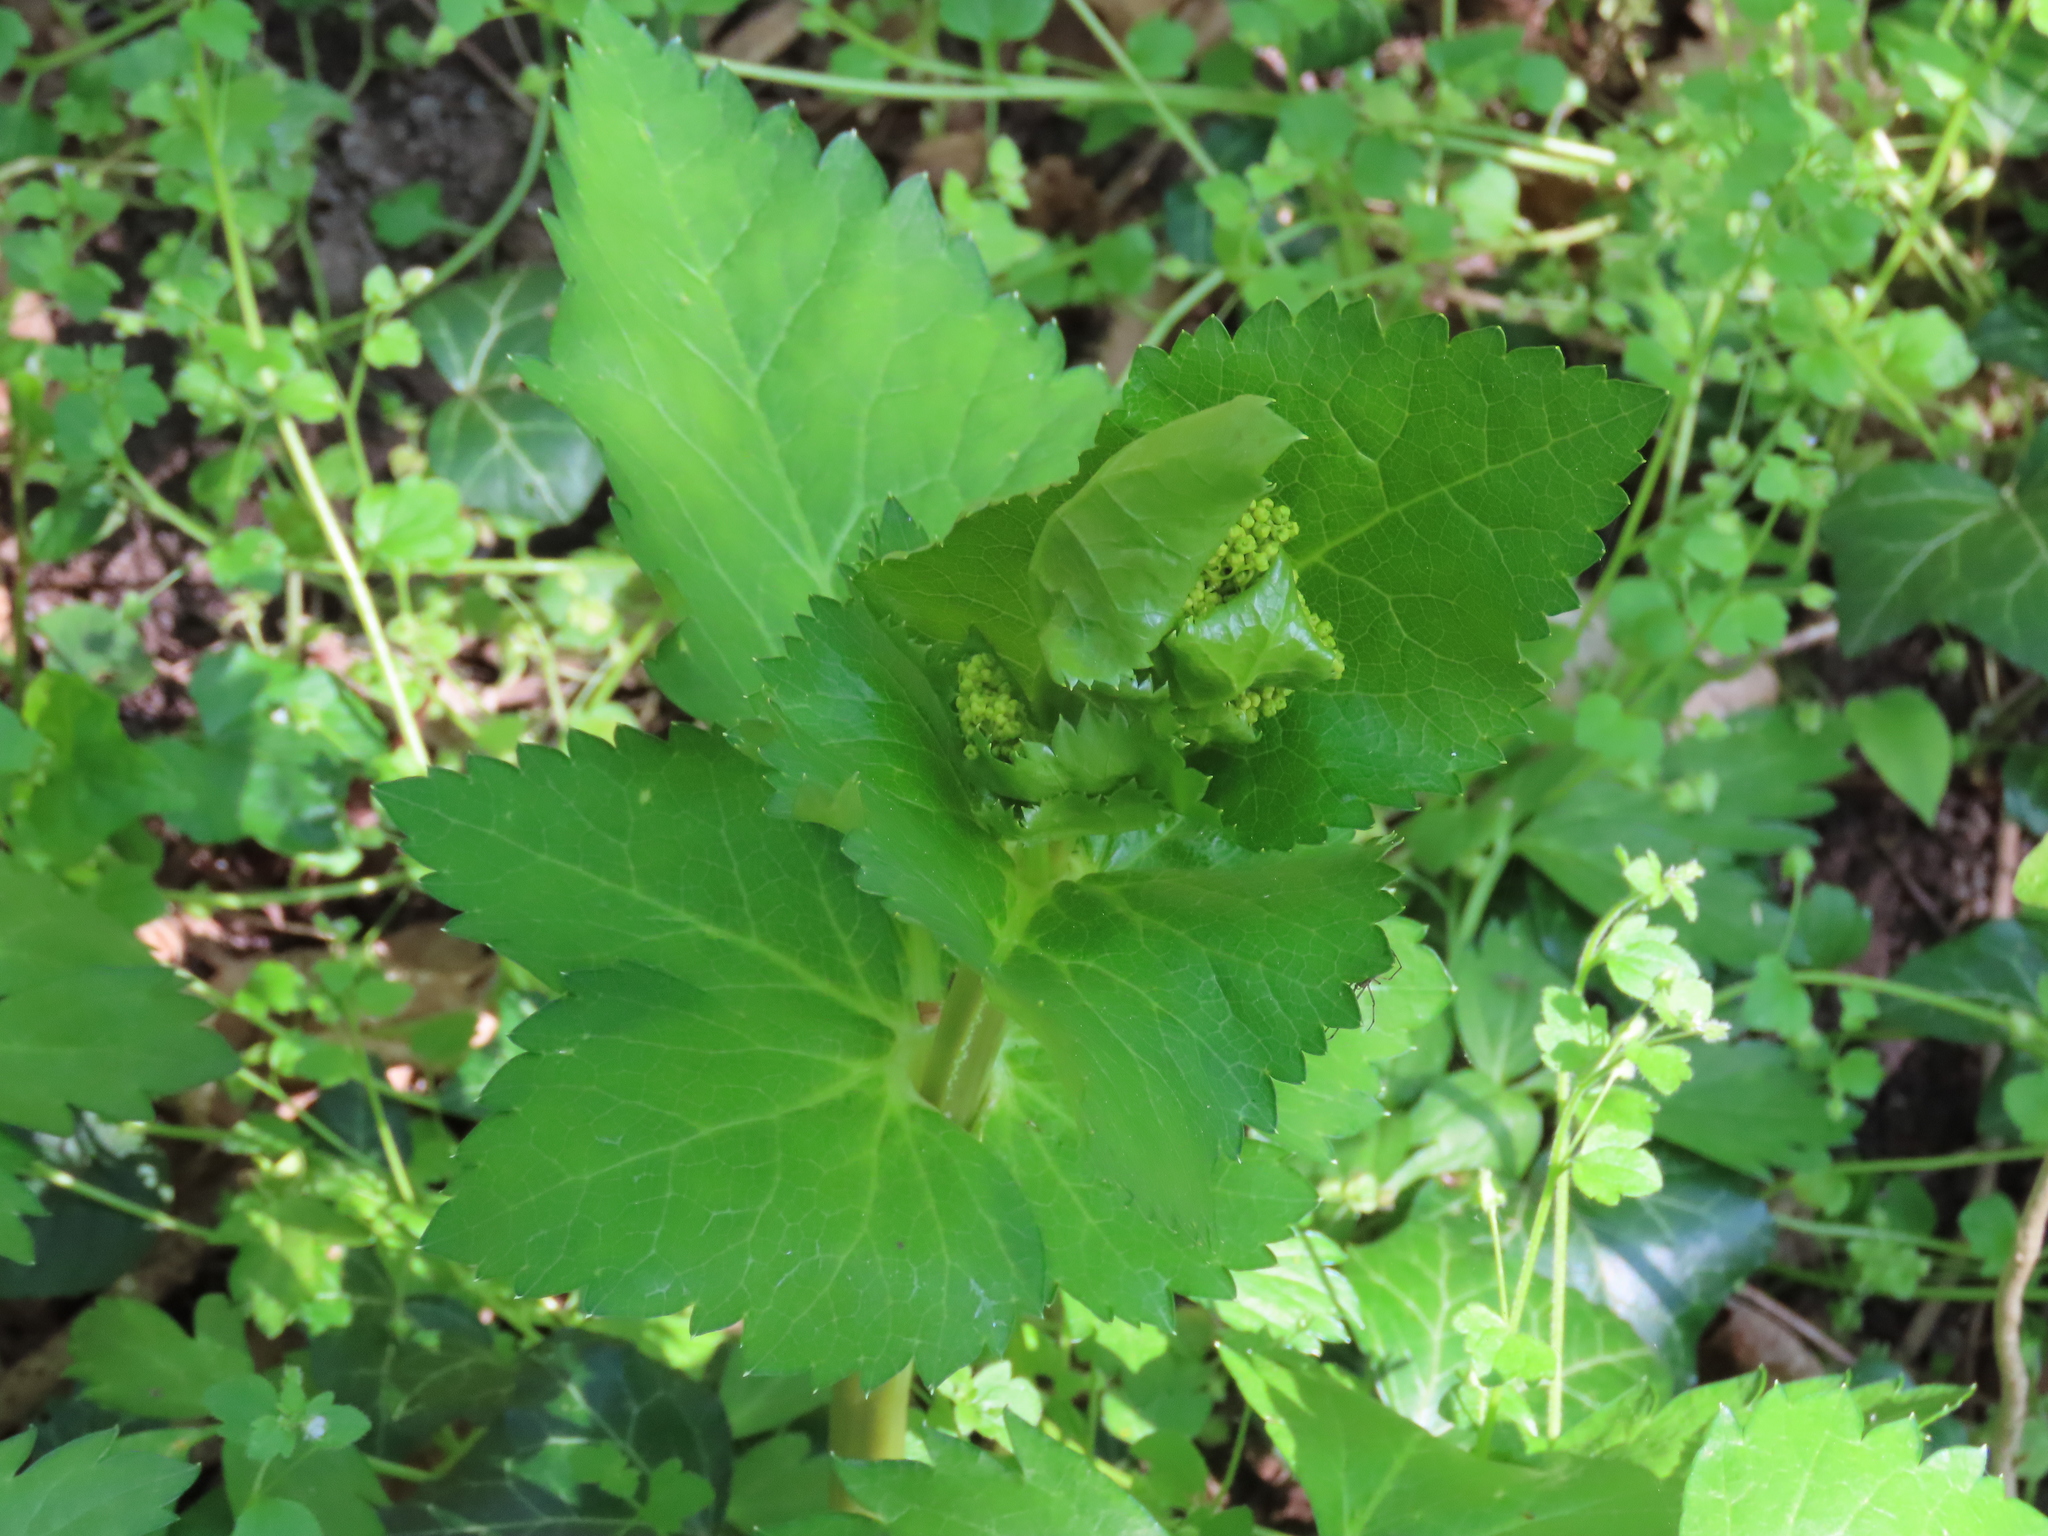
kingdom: Plantae
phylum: Tracheophyta
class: Magnoliopsida
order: Apiales
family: Apiaceae
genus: Smyrnium
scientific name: Smyrnium perfoliatum
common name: Perfoliate alexanders
